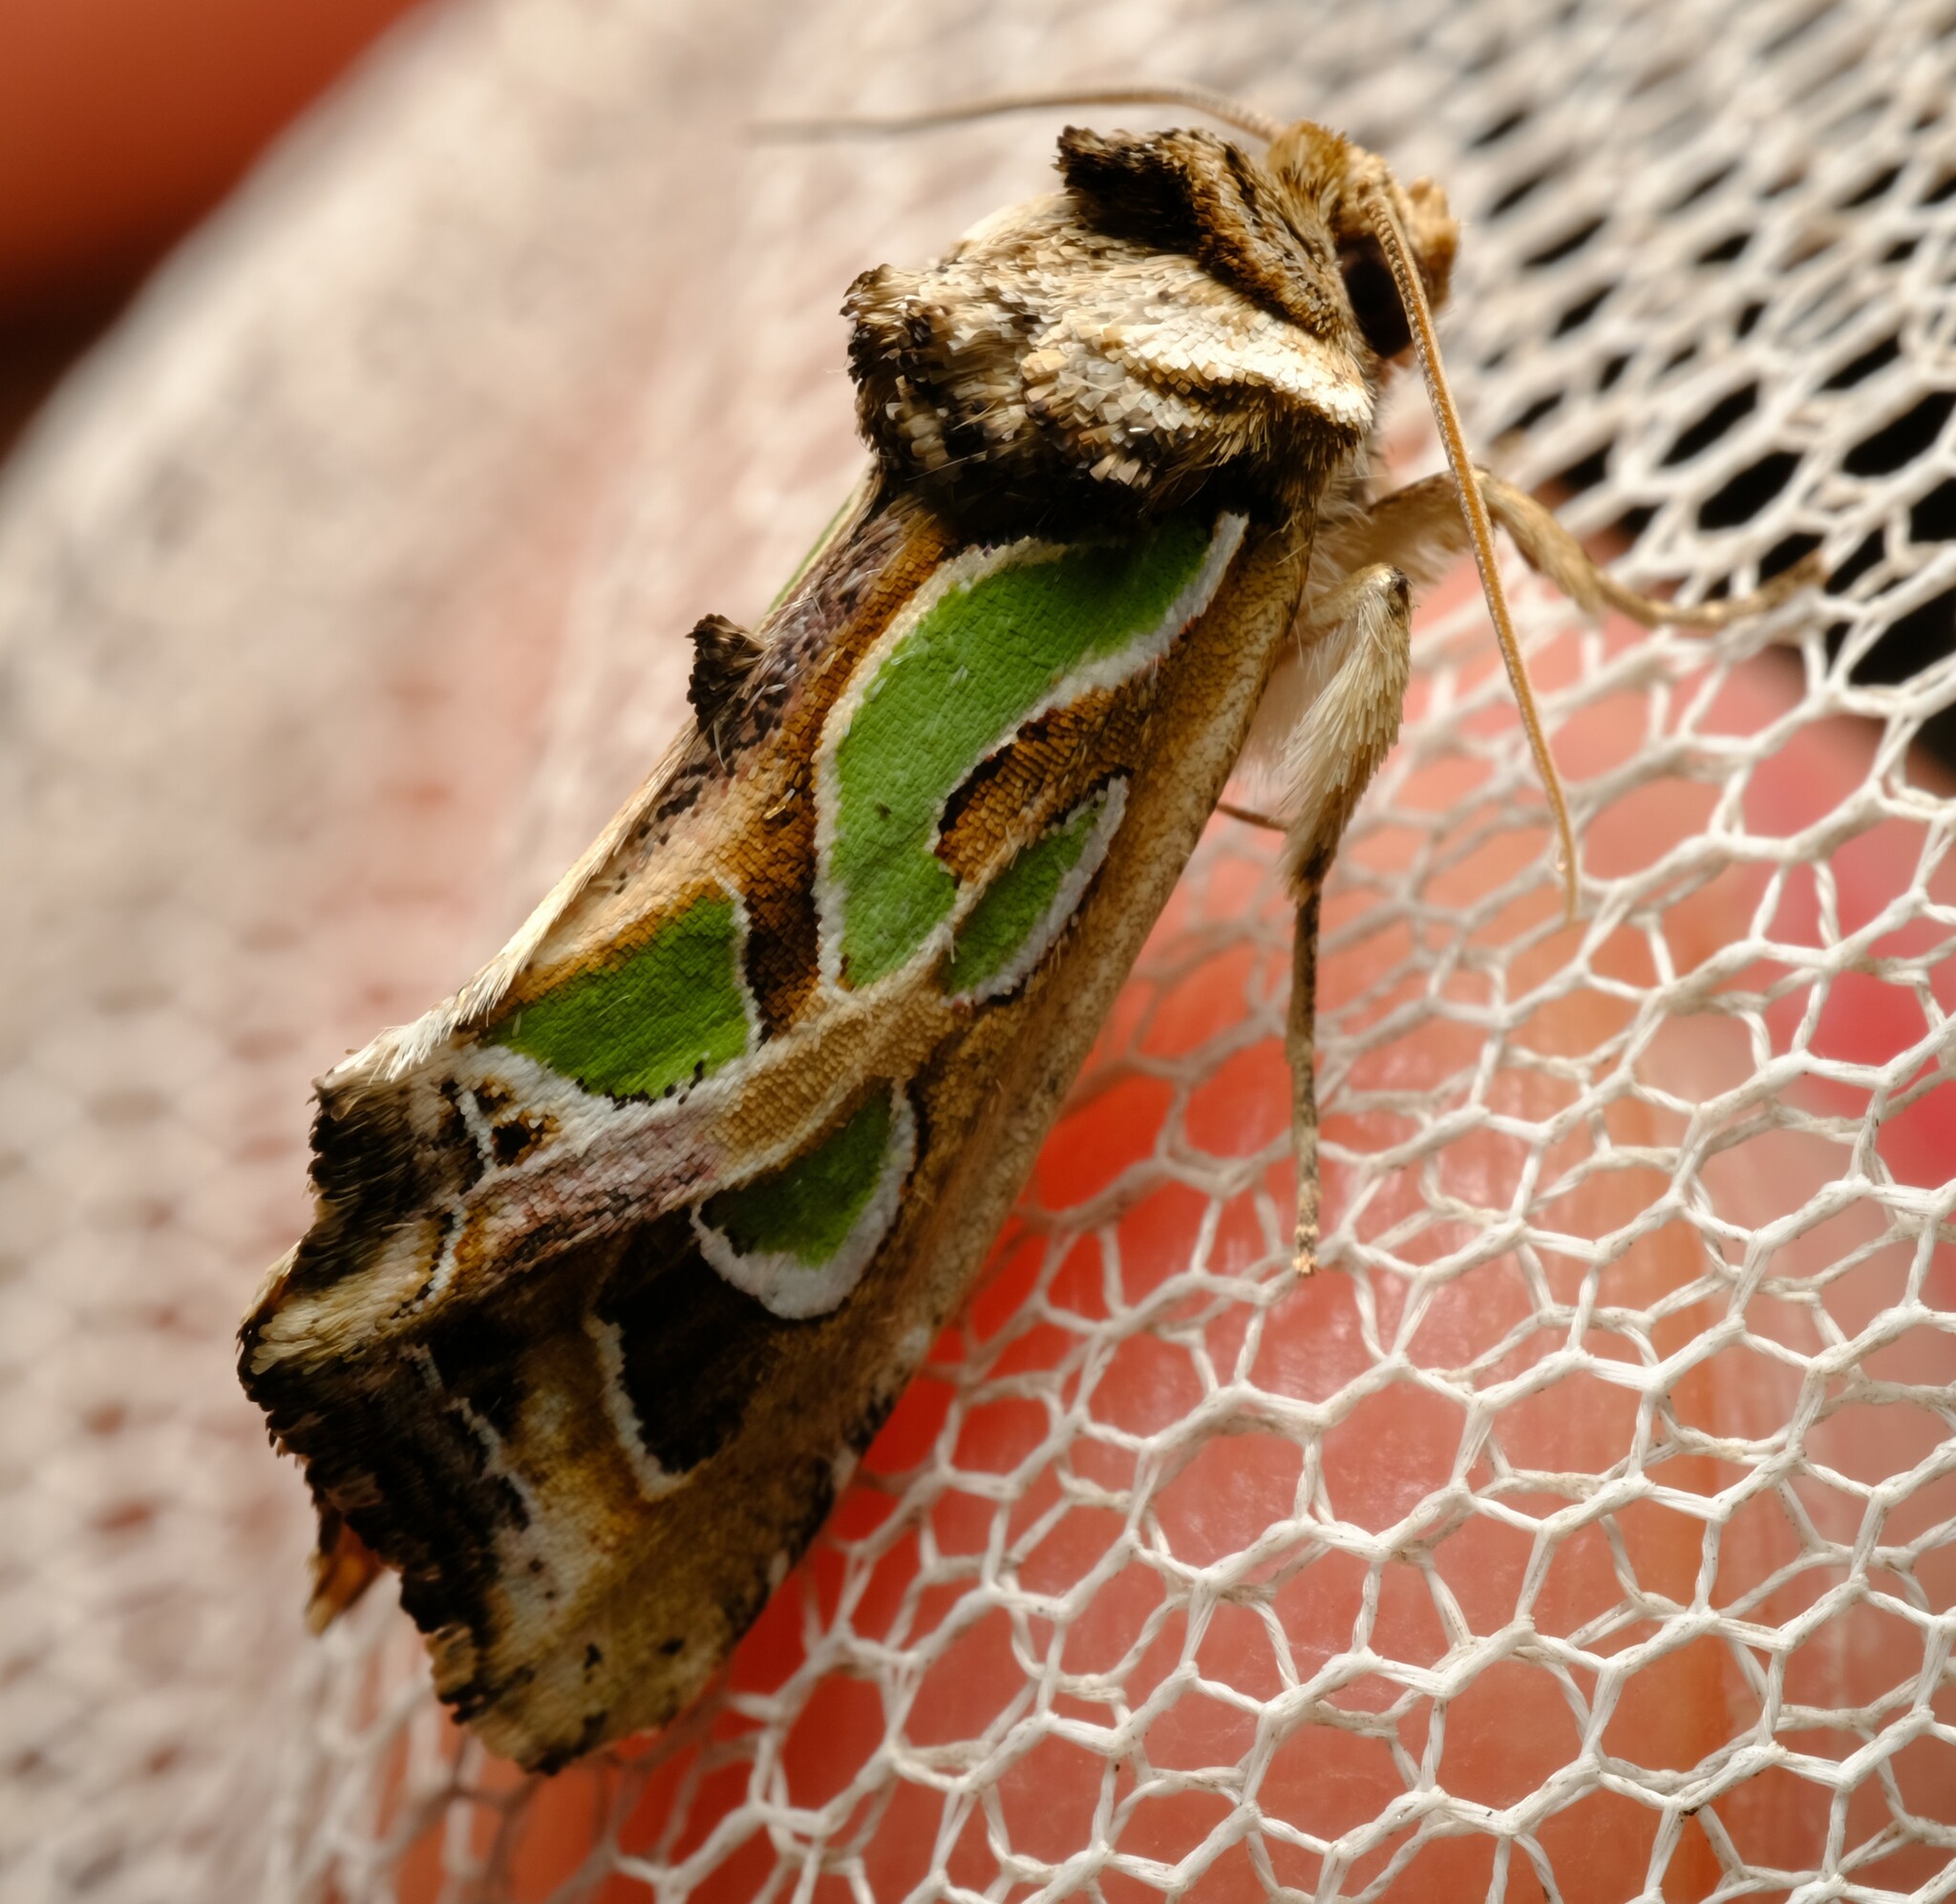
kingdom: Animalia
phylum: Arthropoda
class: Insecta
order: Lepidoptera
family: Noctuidae
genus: Cosmodes
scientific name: Cosmodes elegans
